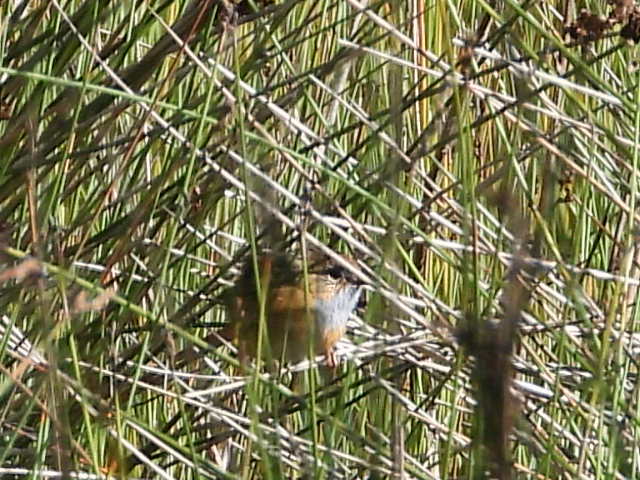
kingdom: Animalia
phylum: Chordata
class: Aves
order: Passeriformes
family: Maluridae
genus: Stipiturus
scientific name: Stipiturus malachurus
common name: Southern emu-wren
